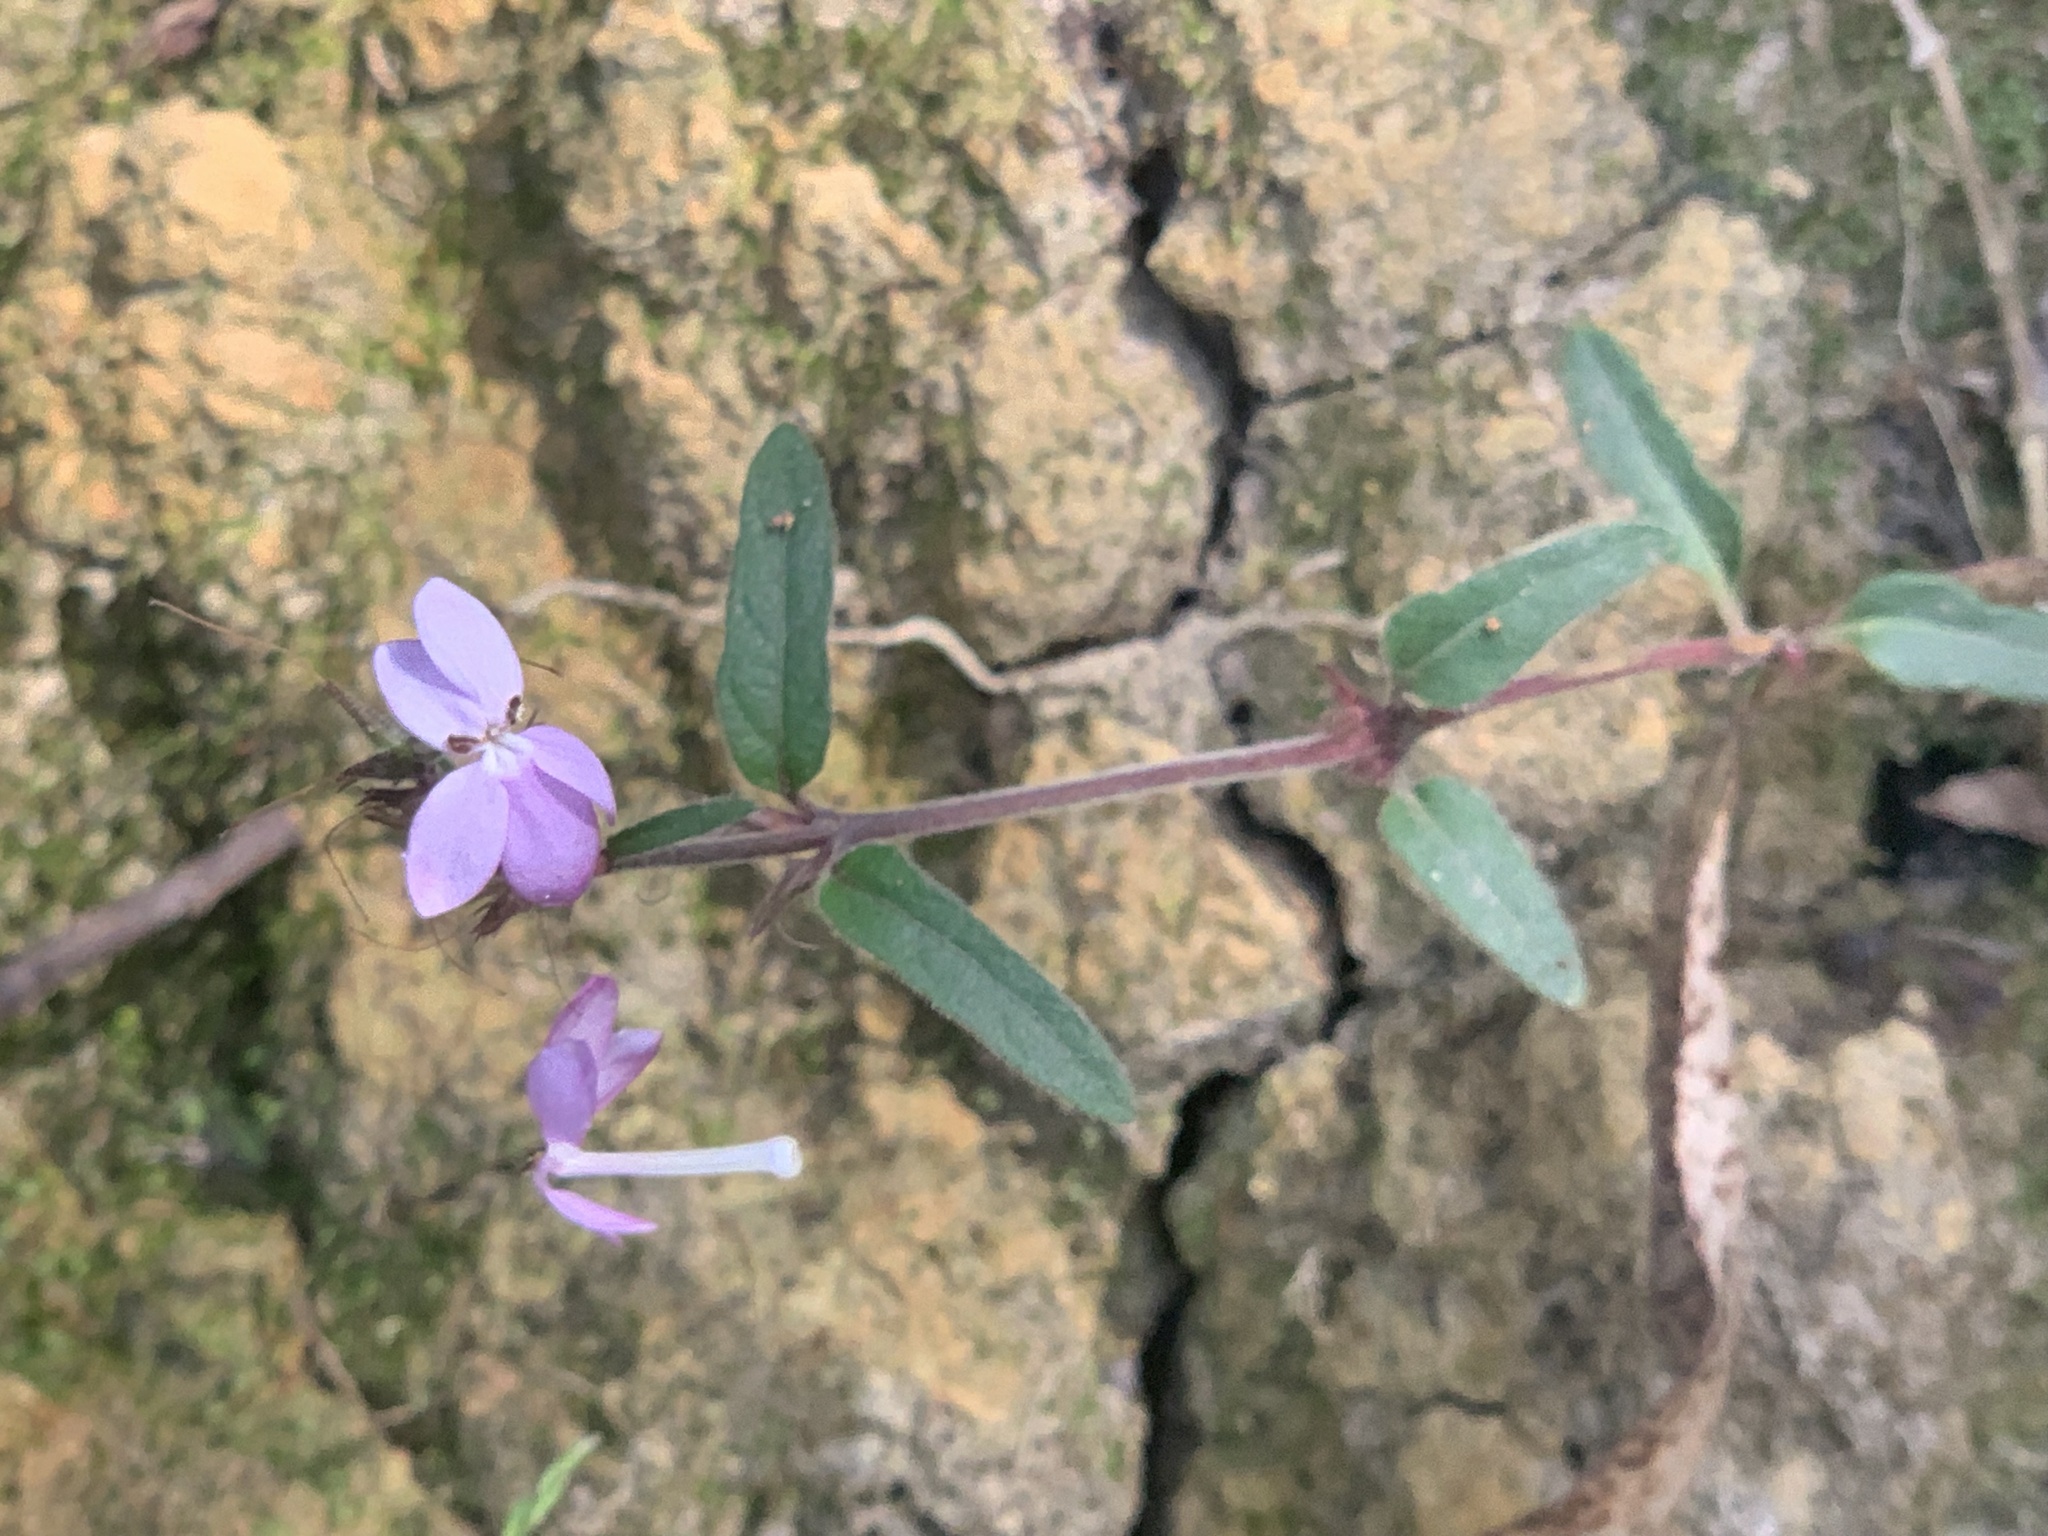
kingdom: Plantae
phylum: Tracheophyta
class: Magnoliopsida
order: Lamiales
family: Acanthaceae
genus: Pseuderanthemum
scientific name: Pseuderanthemum variabile
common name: Night and afternoon
